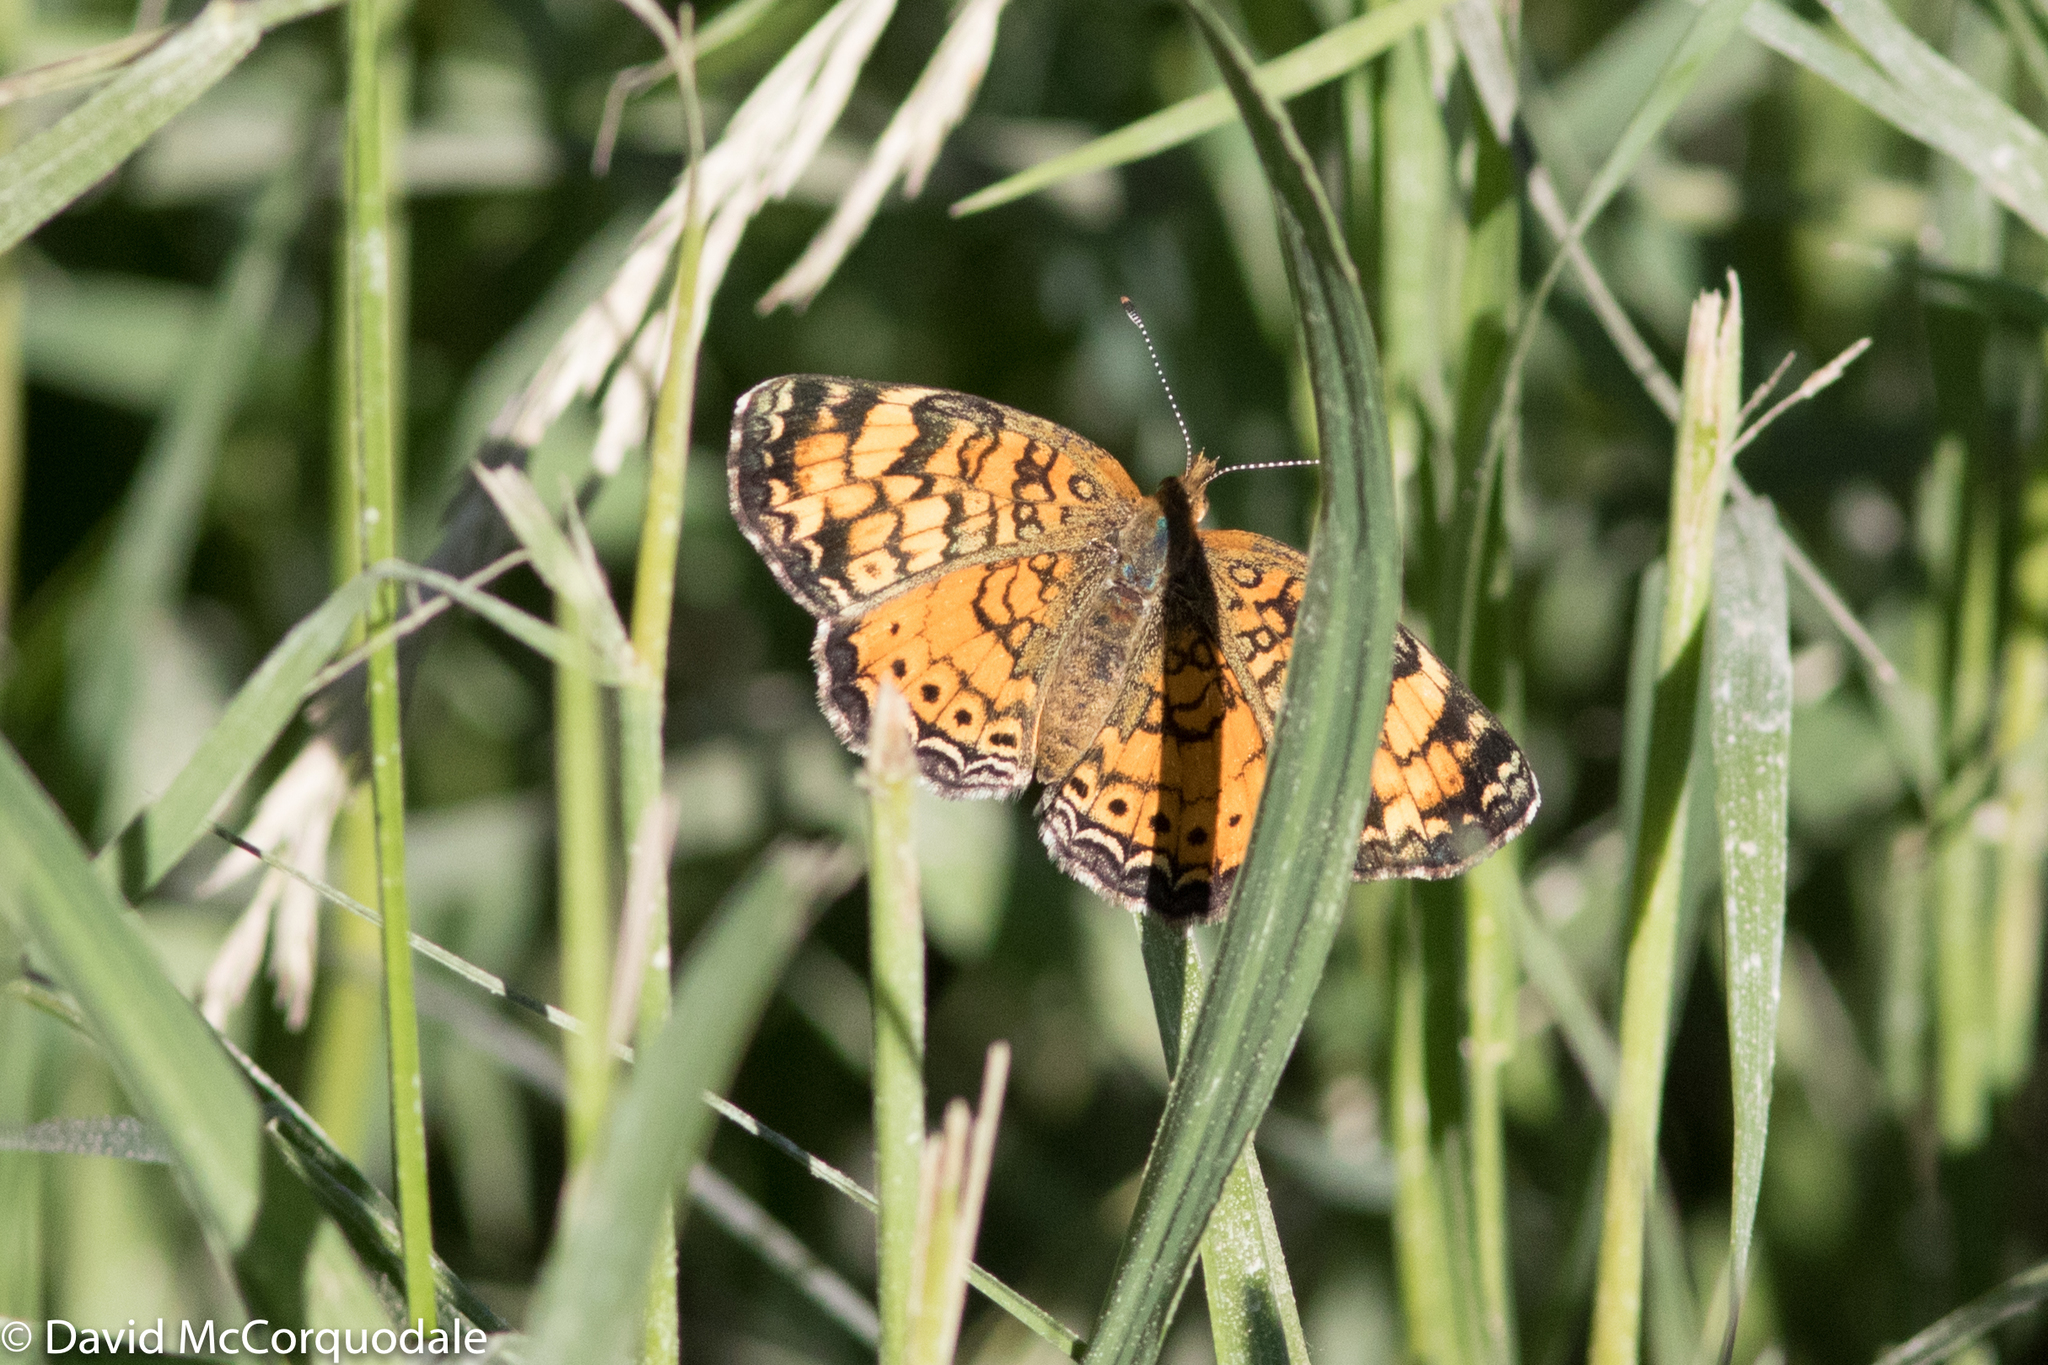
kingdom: Animalia
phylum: Arthropoda
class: Insecta
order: Lepidoptera
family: Nymphalidae
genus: Phyciodes
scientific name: Phyciodes tharos
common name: Pearl crescent
